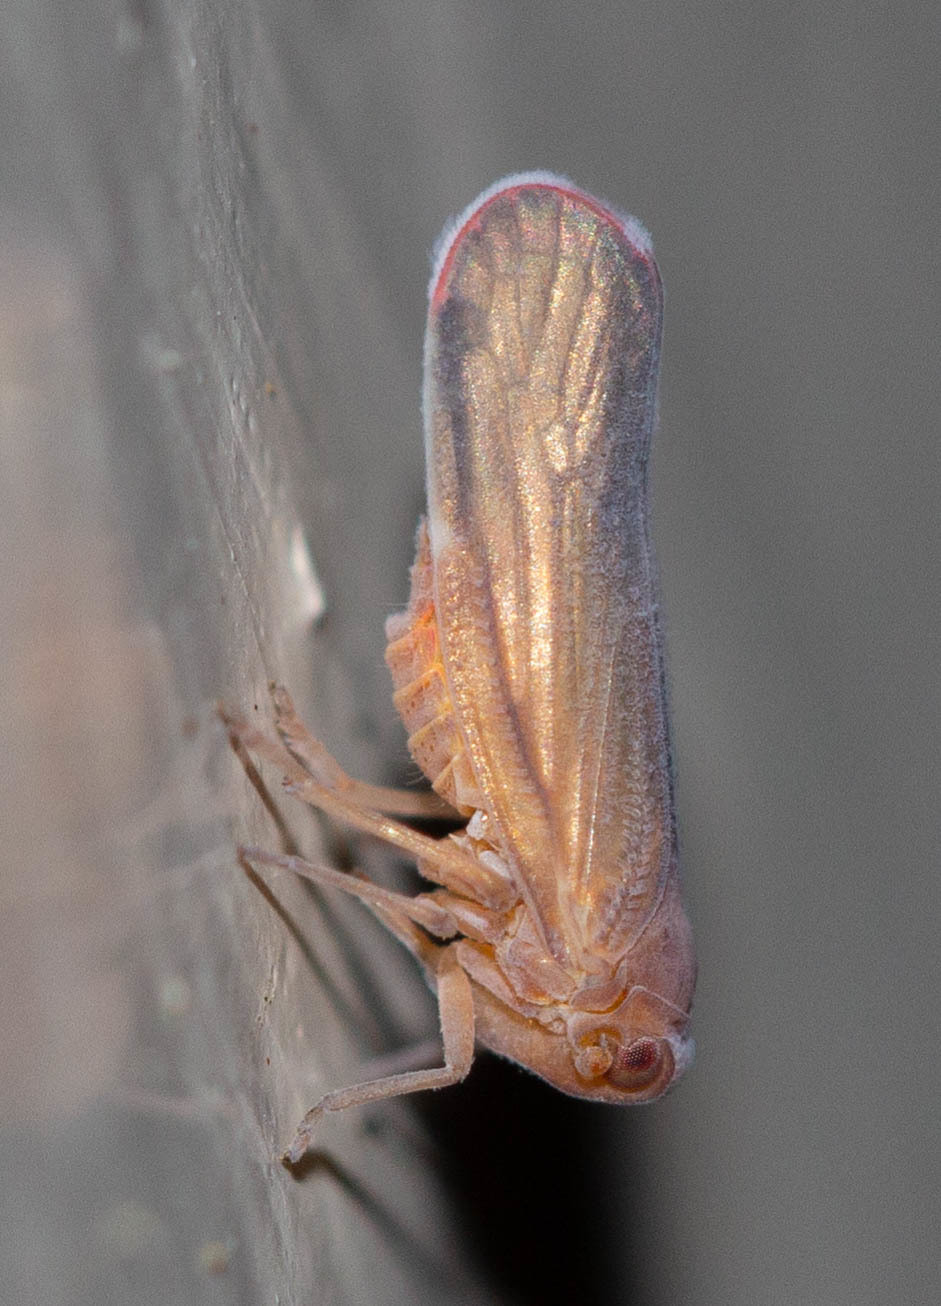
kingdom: Animalia
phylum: Arthropoda
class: Insecta
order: Hemiptera
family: Derbidae
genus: Omolicna
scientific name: Omolicna mcateei
